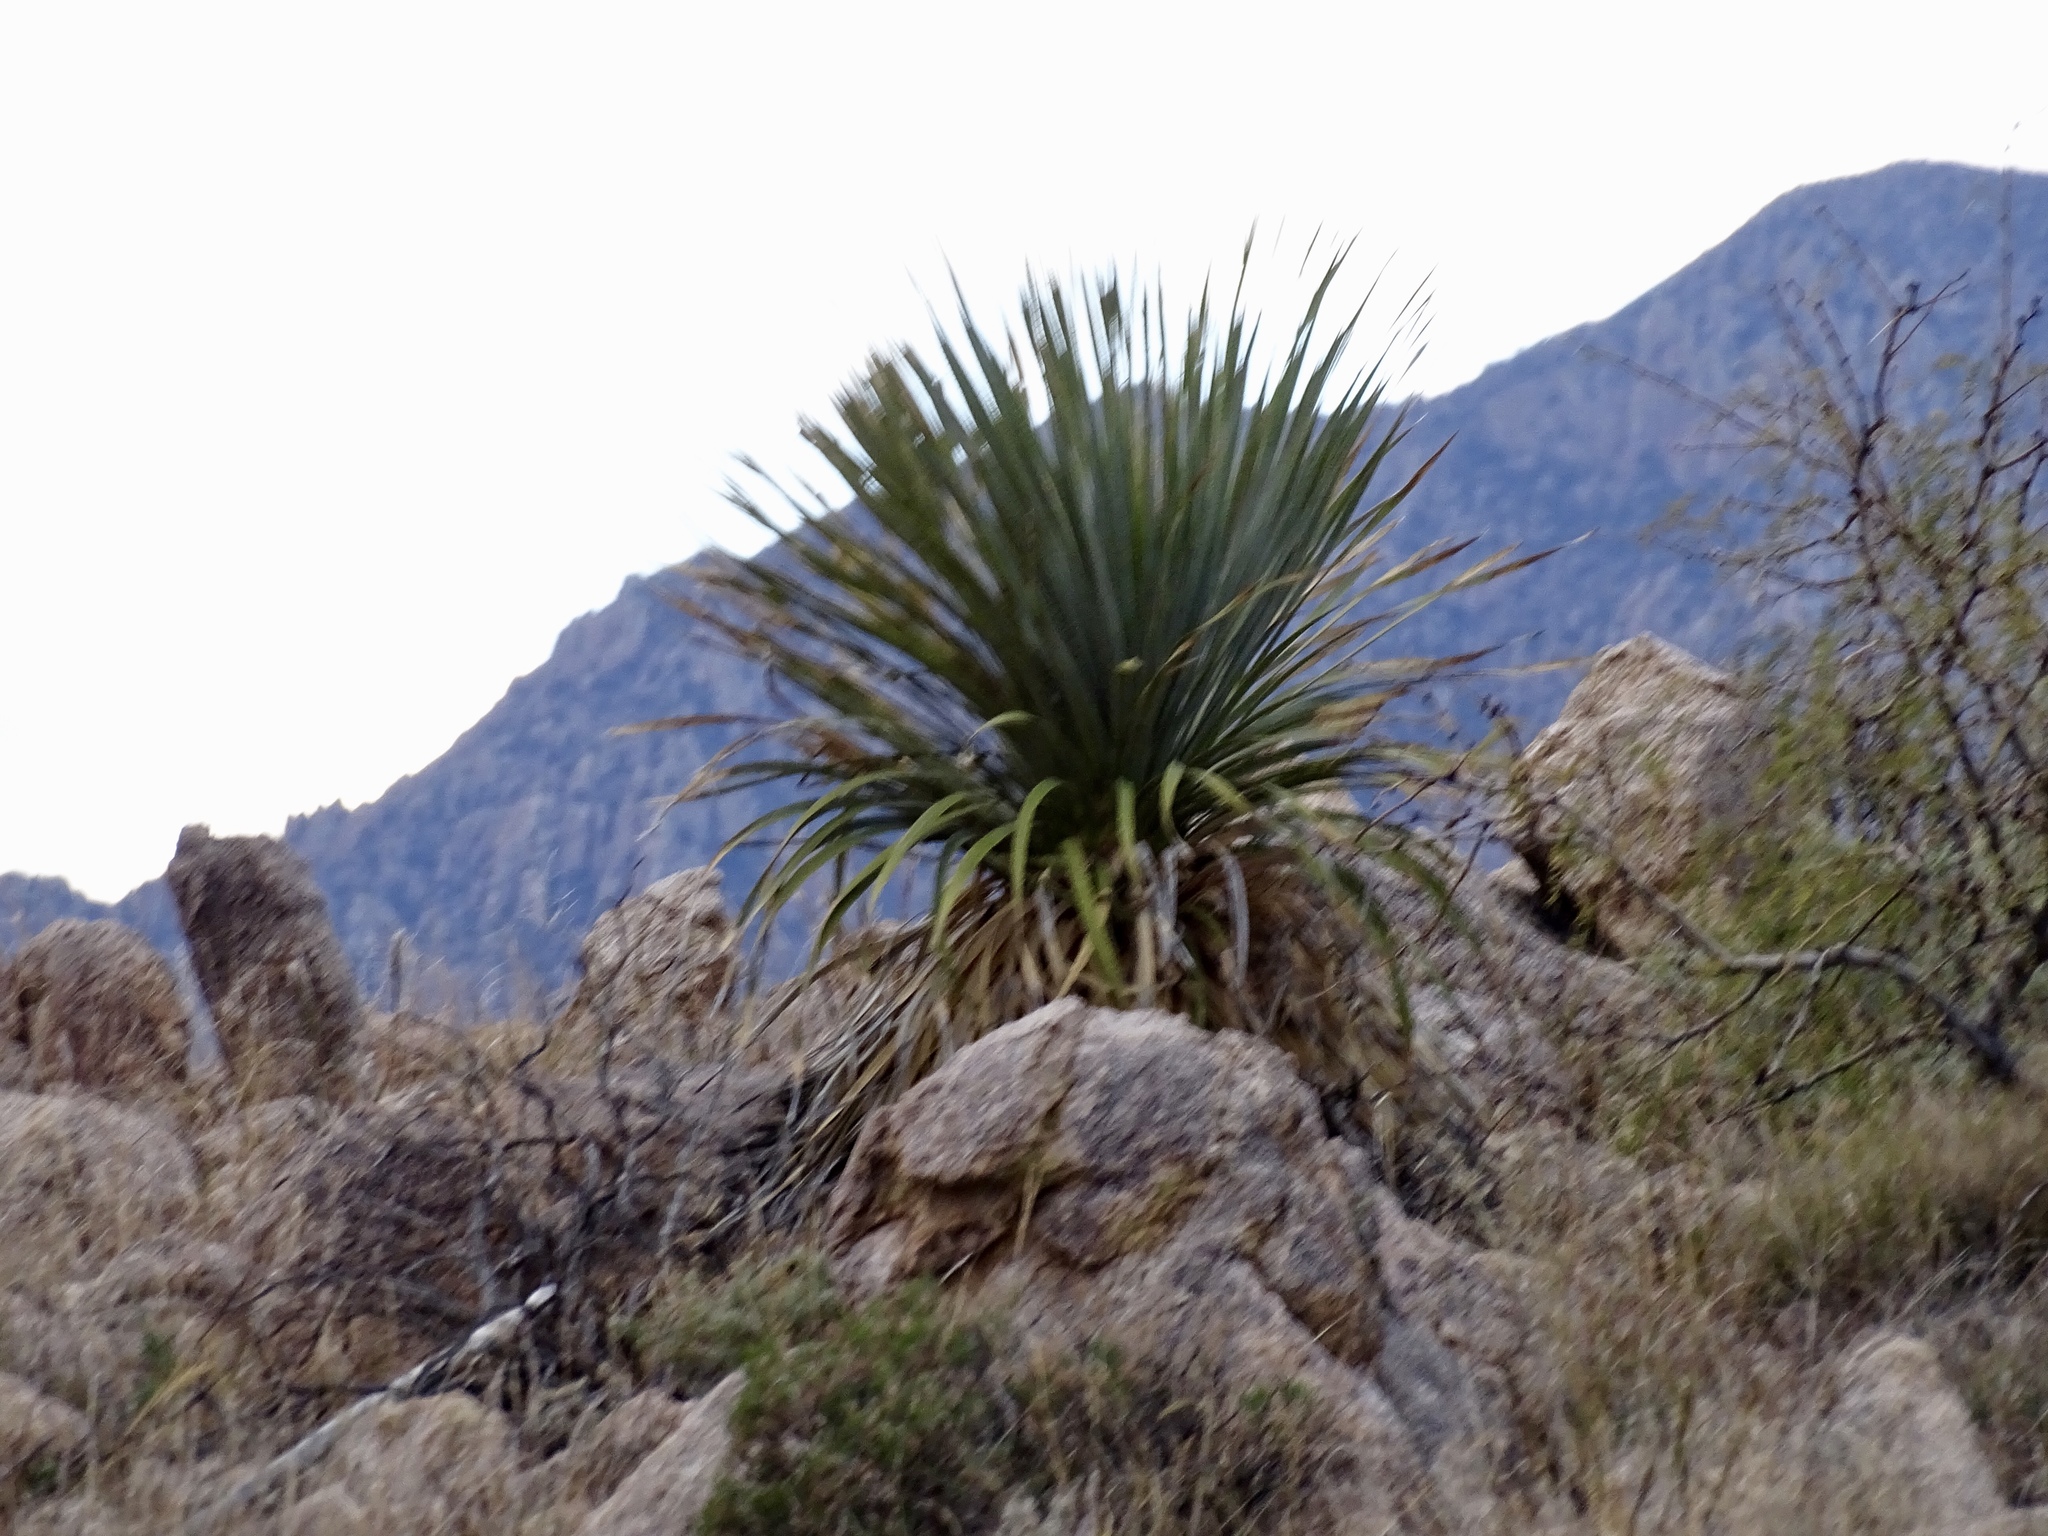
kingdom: Plantae
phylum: Tracheophyta
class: Liliopsida
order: Asparagales
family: Asparagaceae
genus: Dasylirion
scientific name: Dasylirion wheeleri
